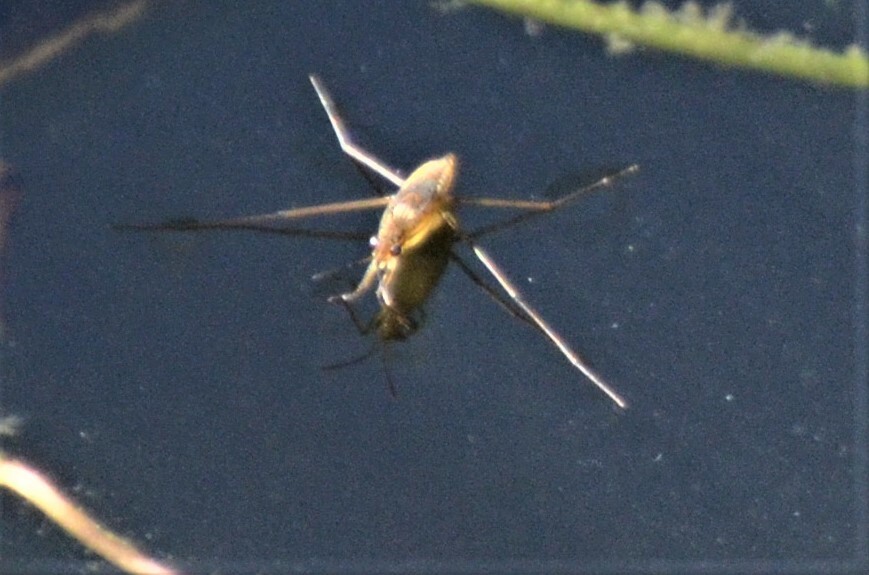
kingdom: Animalia
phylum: Arthropoda
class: Insecta
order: Hemiptera
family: Gerridae
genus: Gerris
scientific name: Gerris
